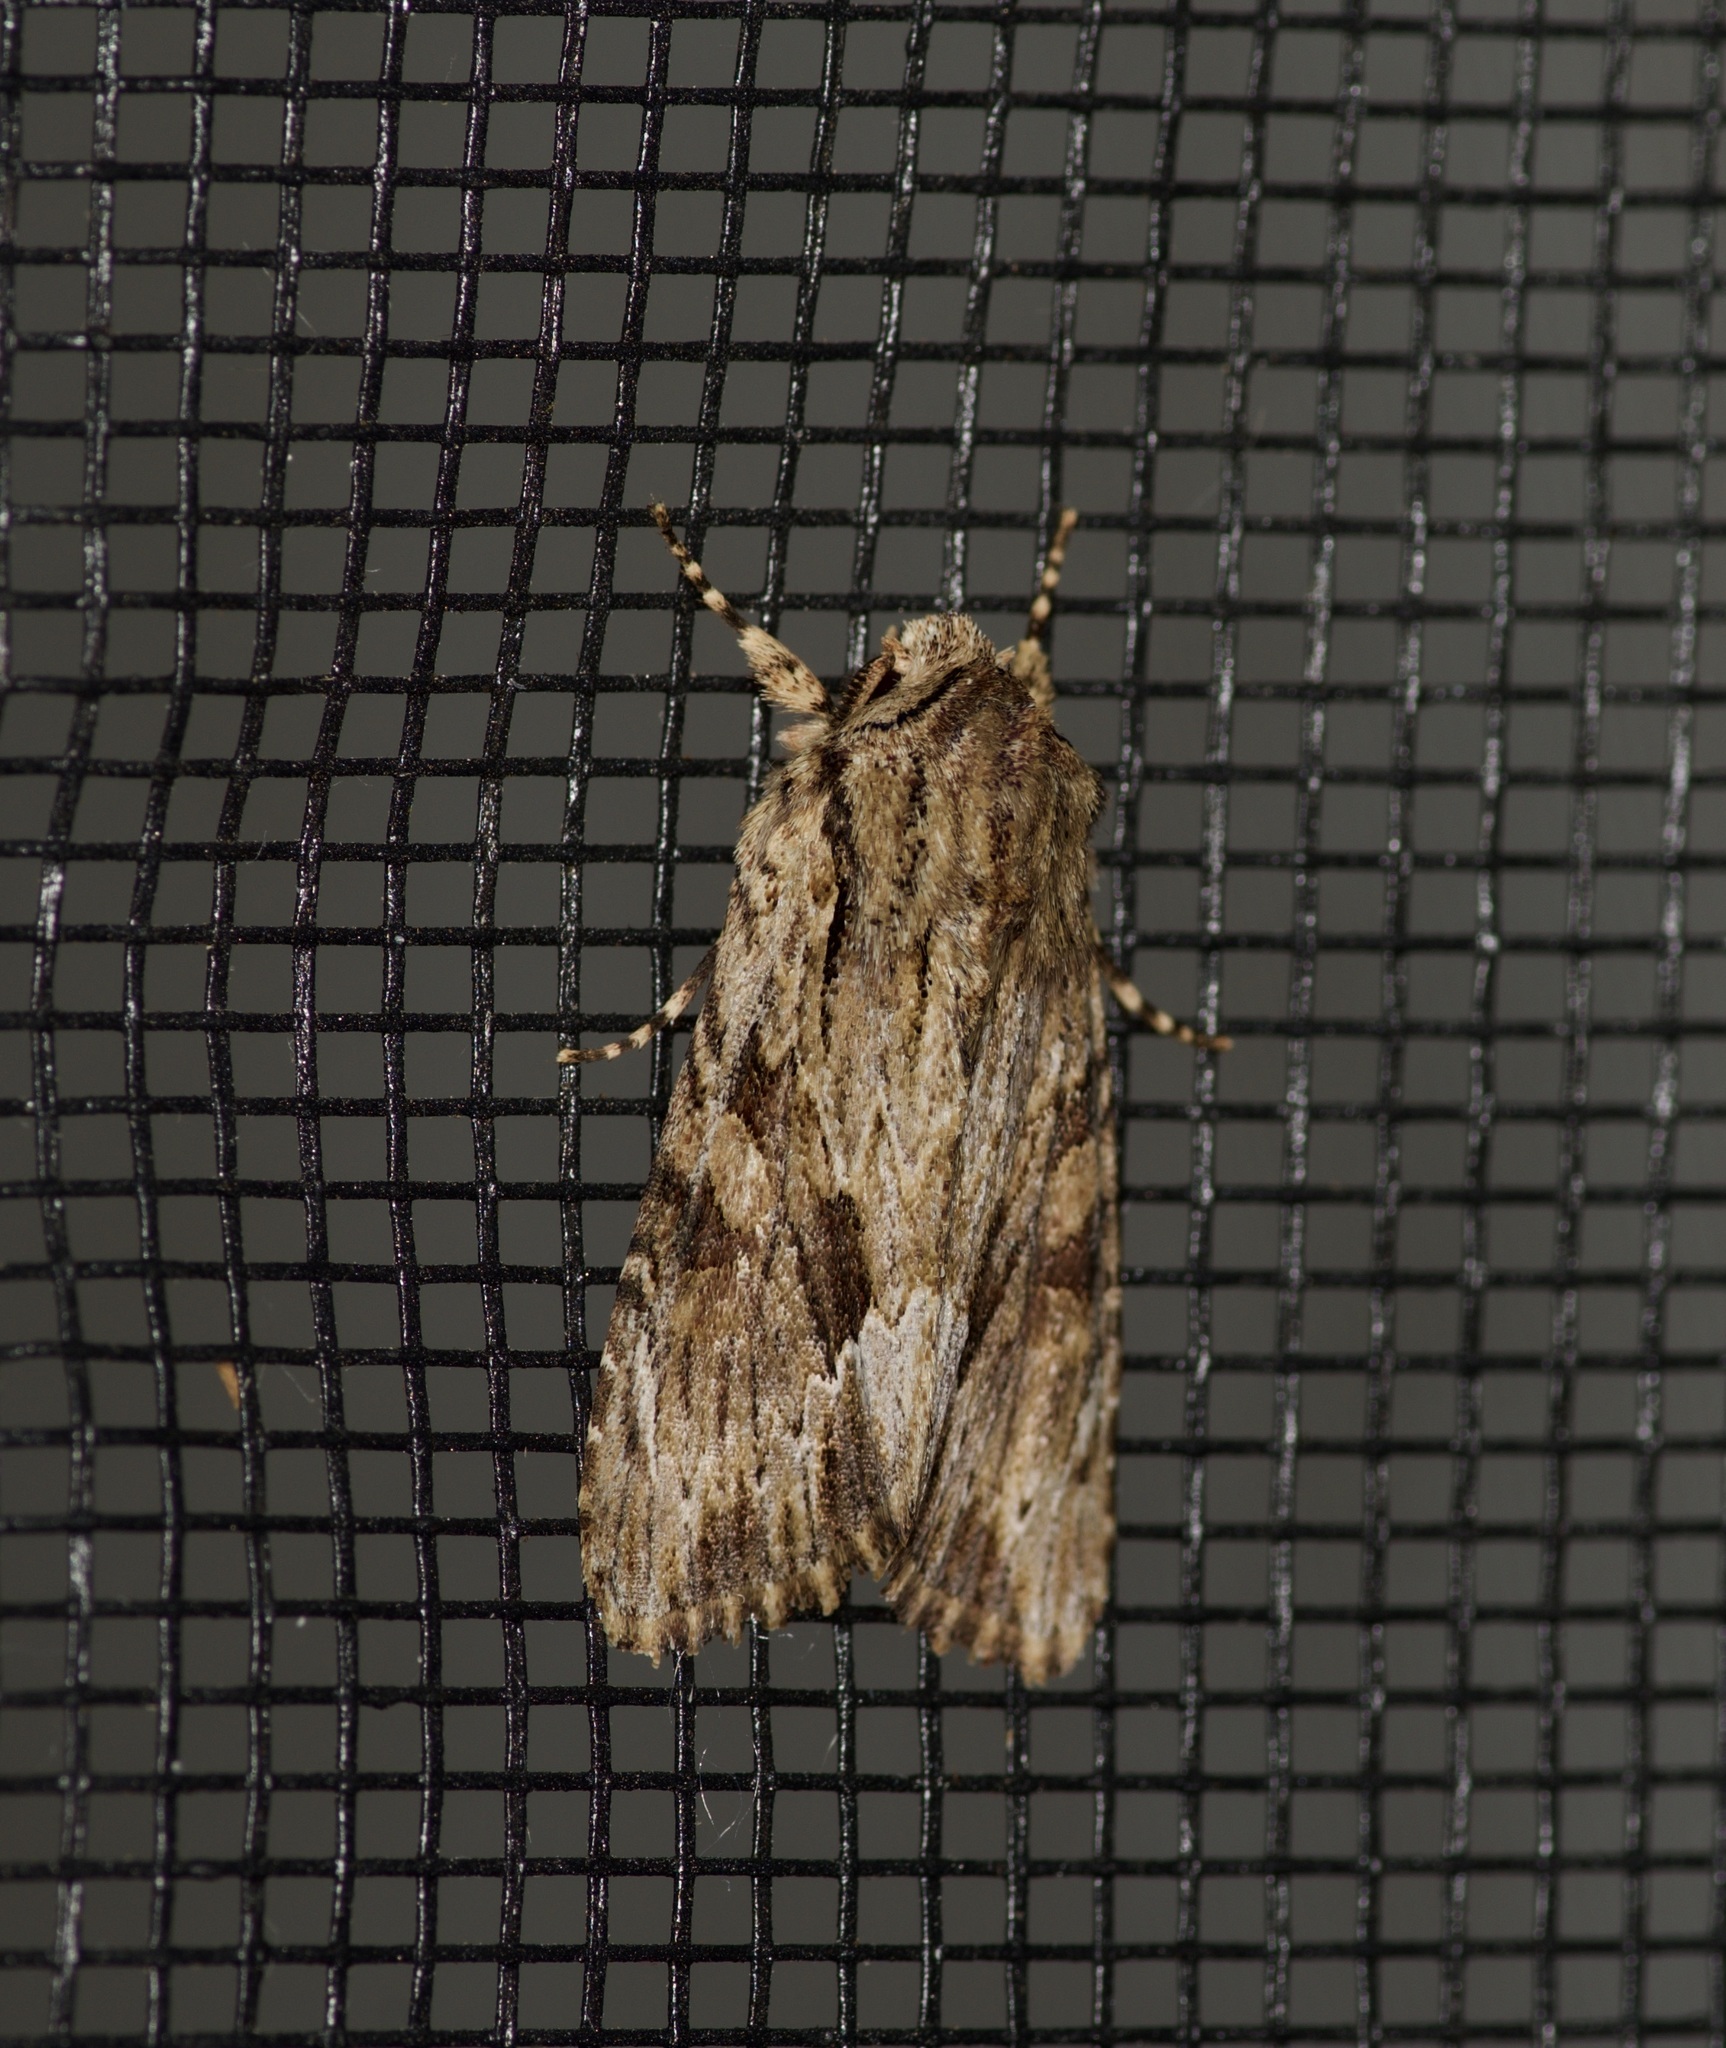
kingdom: Animalia
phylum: Arthropoda
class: Insecta
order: Lepidoptera
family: Noctuidae
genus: Achatia
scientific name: Achatia mucens
